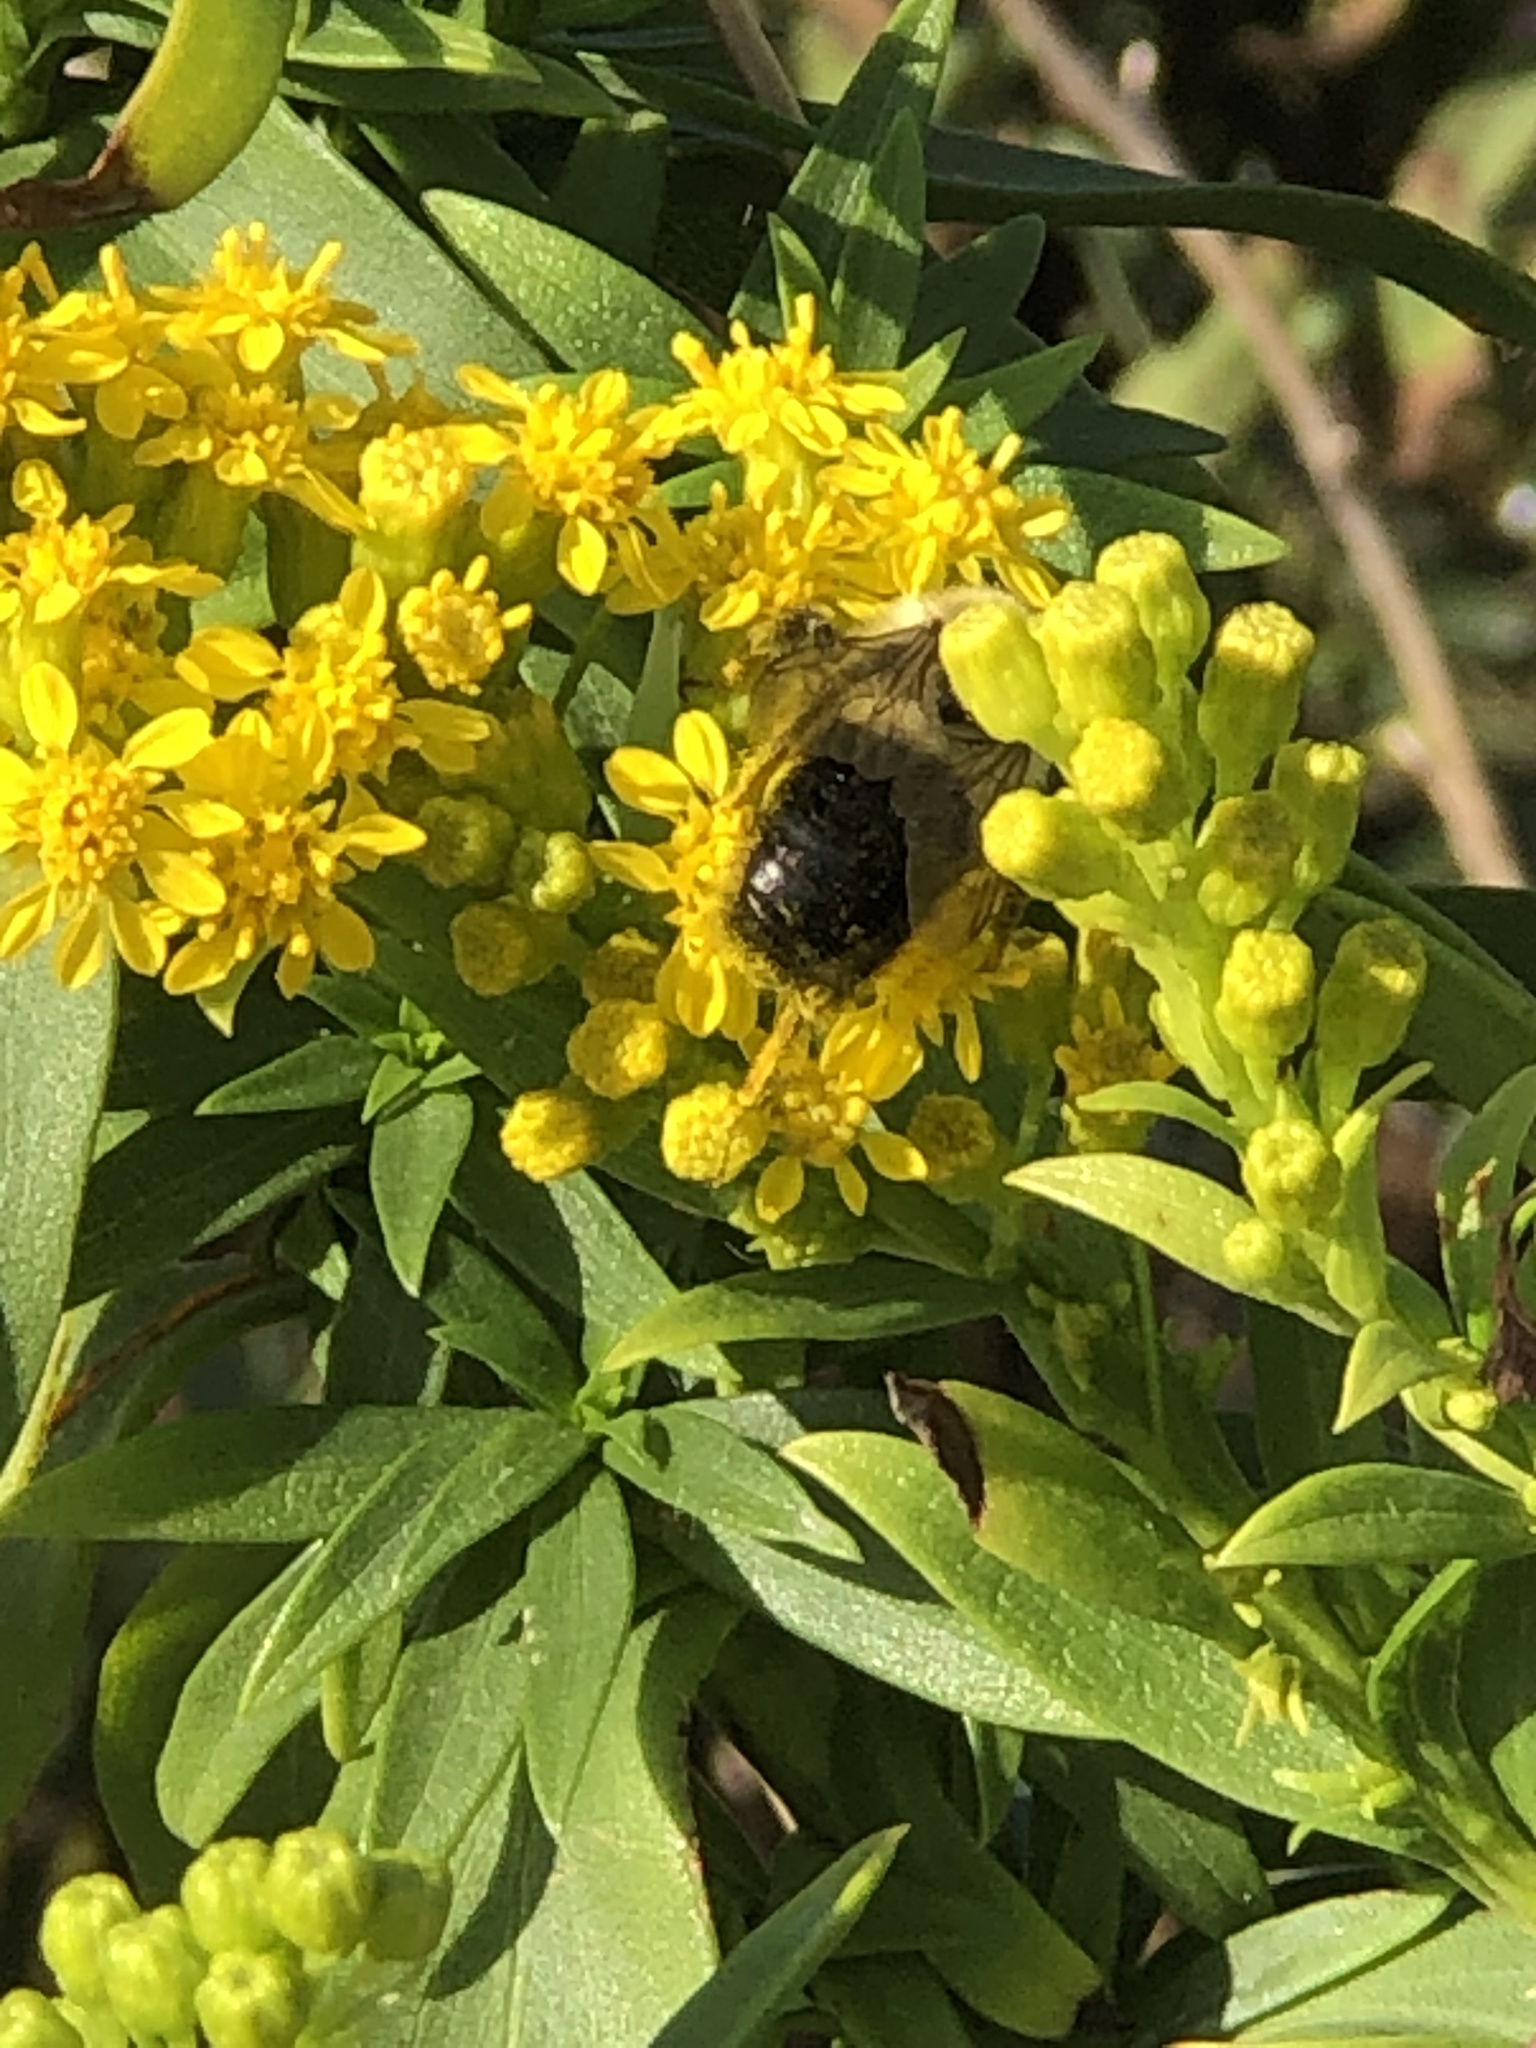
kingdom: Animalia
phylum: Arthropoda
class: Insecta
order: Hymenoptera
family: Apidae
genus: Bombus
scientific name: Bombus impatiens
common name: Common eastern bumble bee
